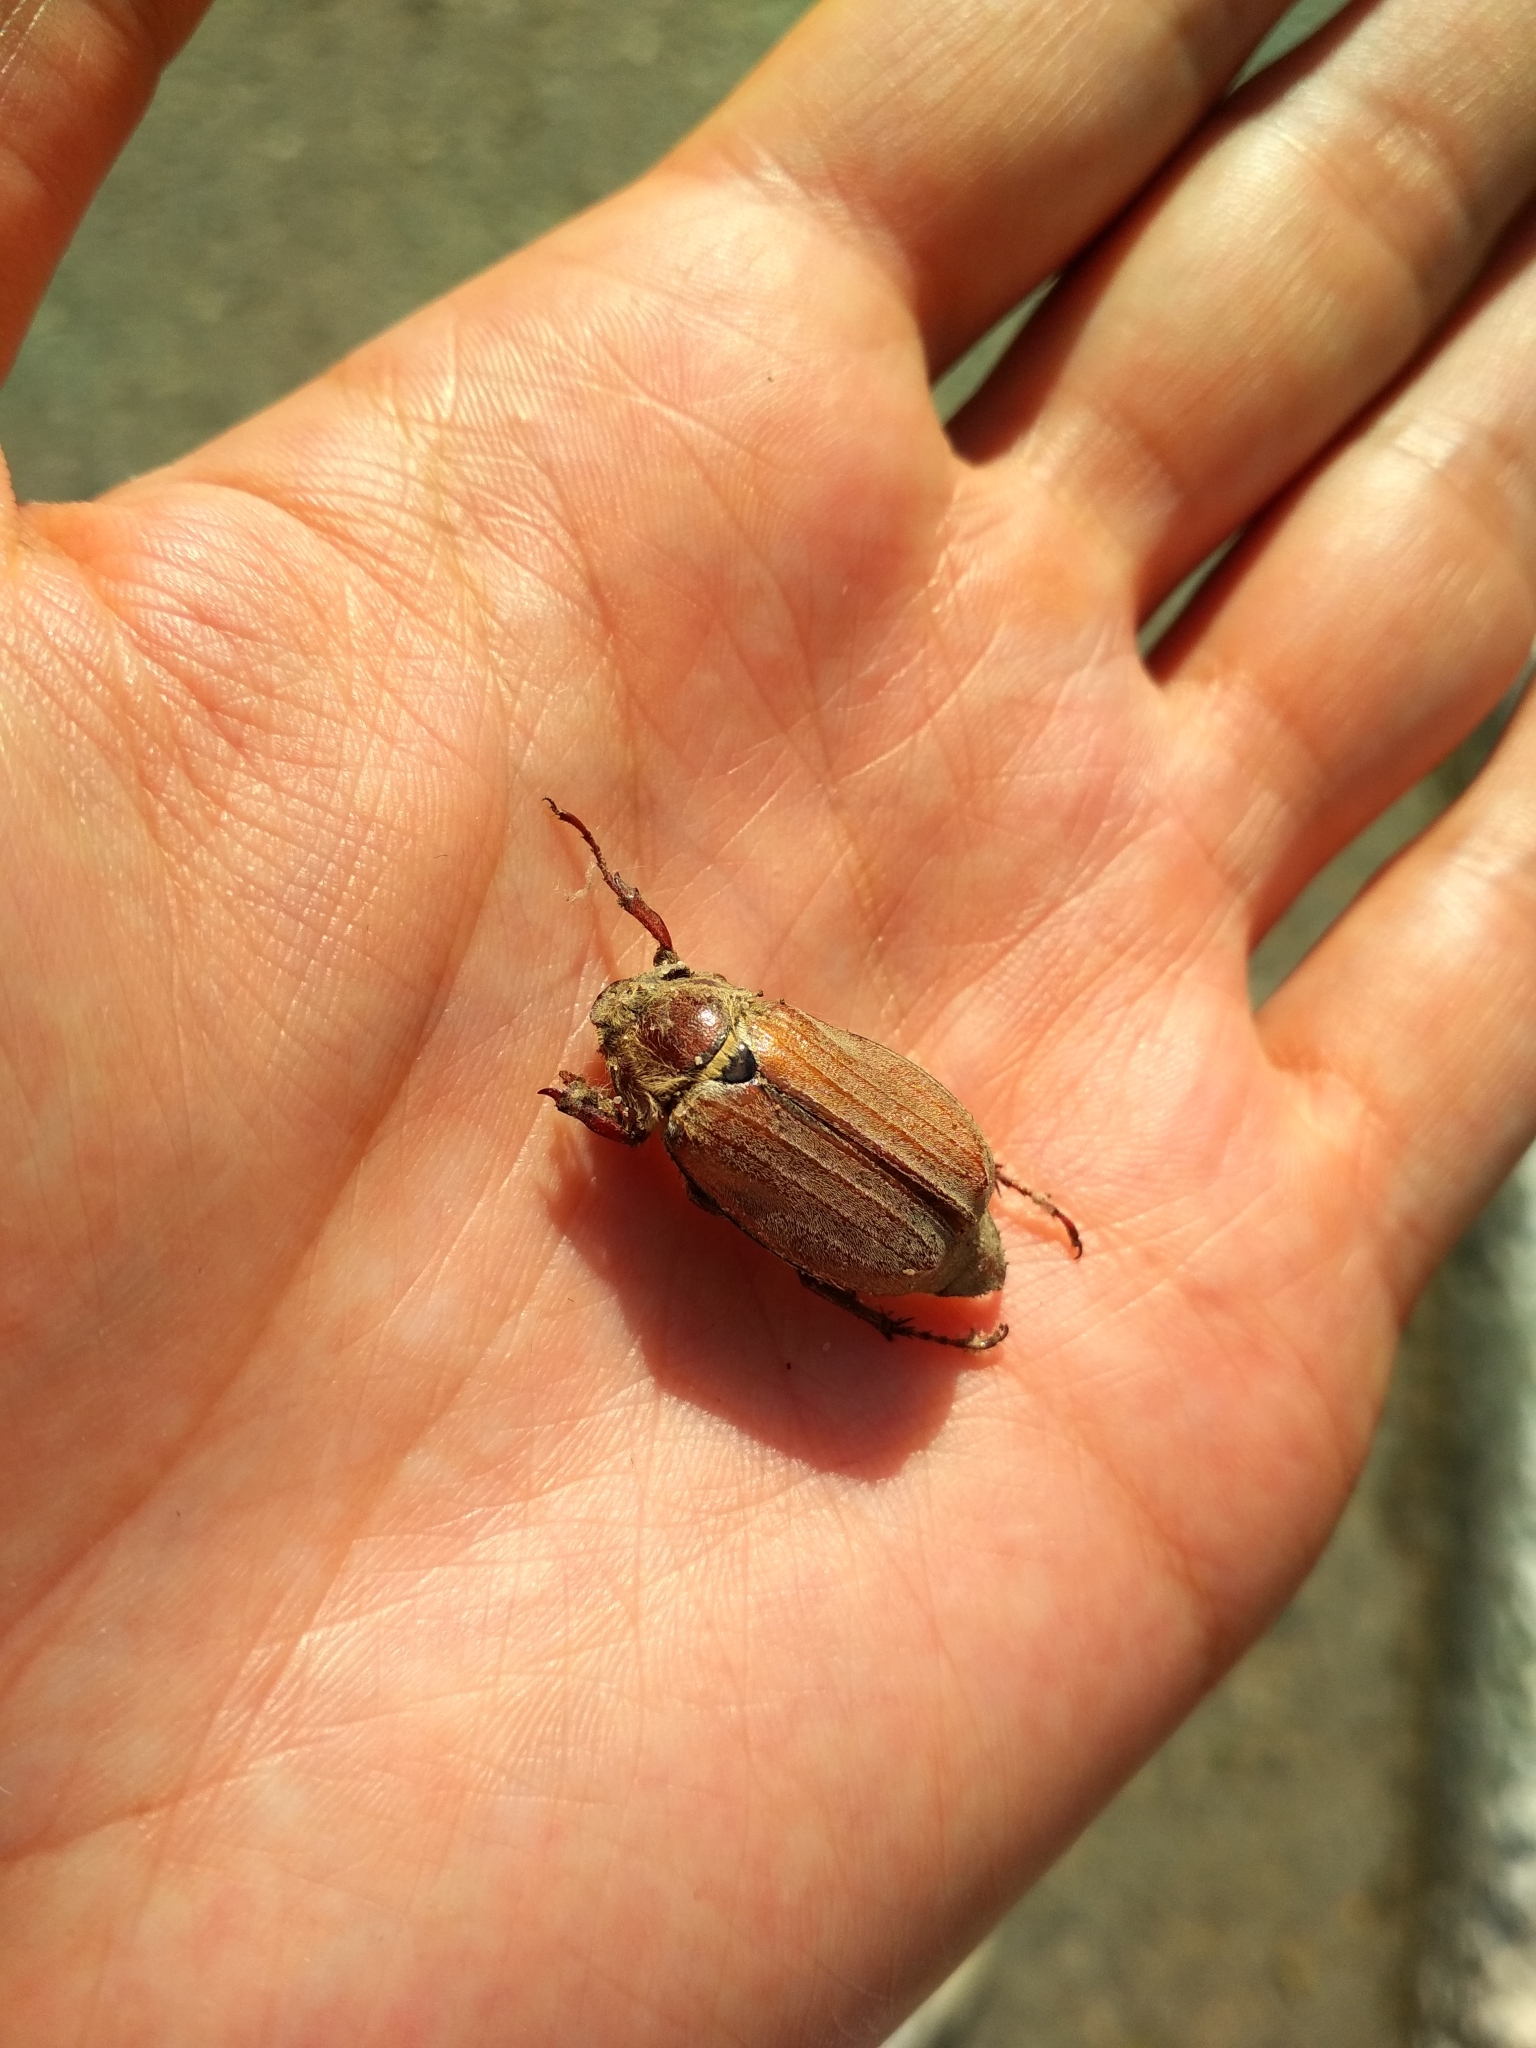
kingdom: Animalia
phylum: Arthropoda
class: Insecta
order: Coleoptera
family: Scarabaeidae
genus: Melolontha
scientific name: Melolontha hippocastani
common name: Chestnut cockchafer
